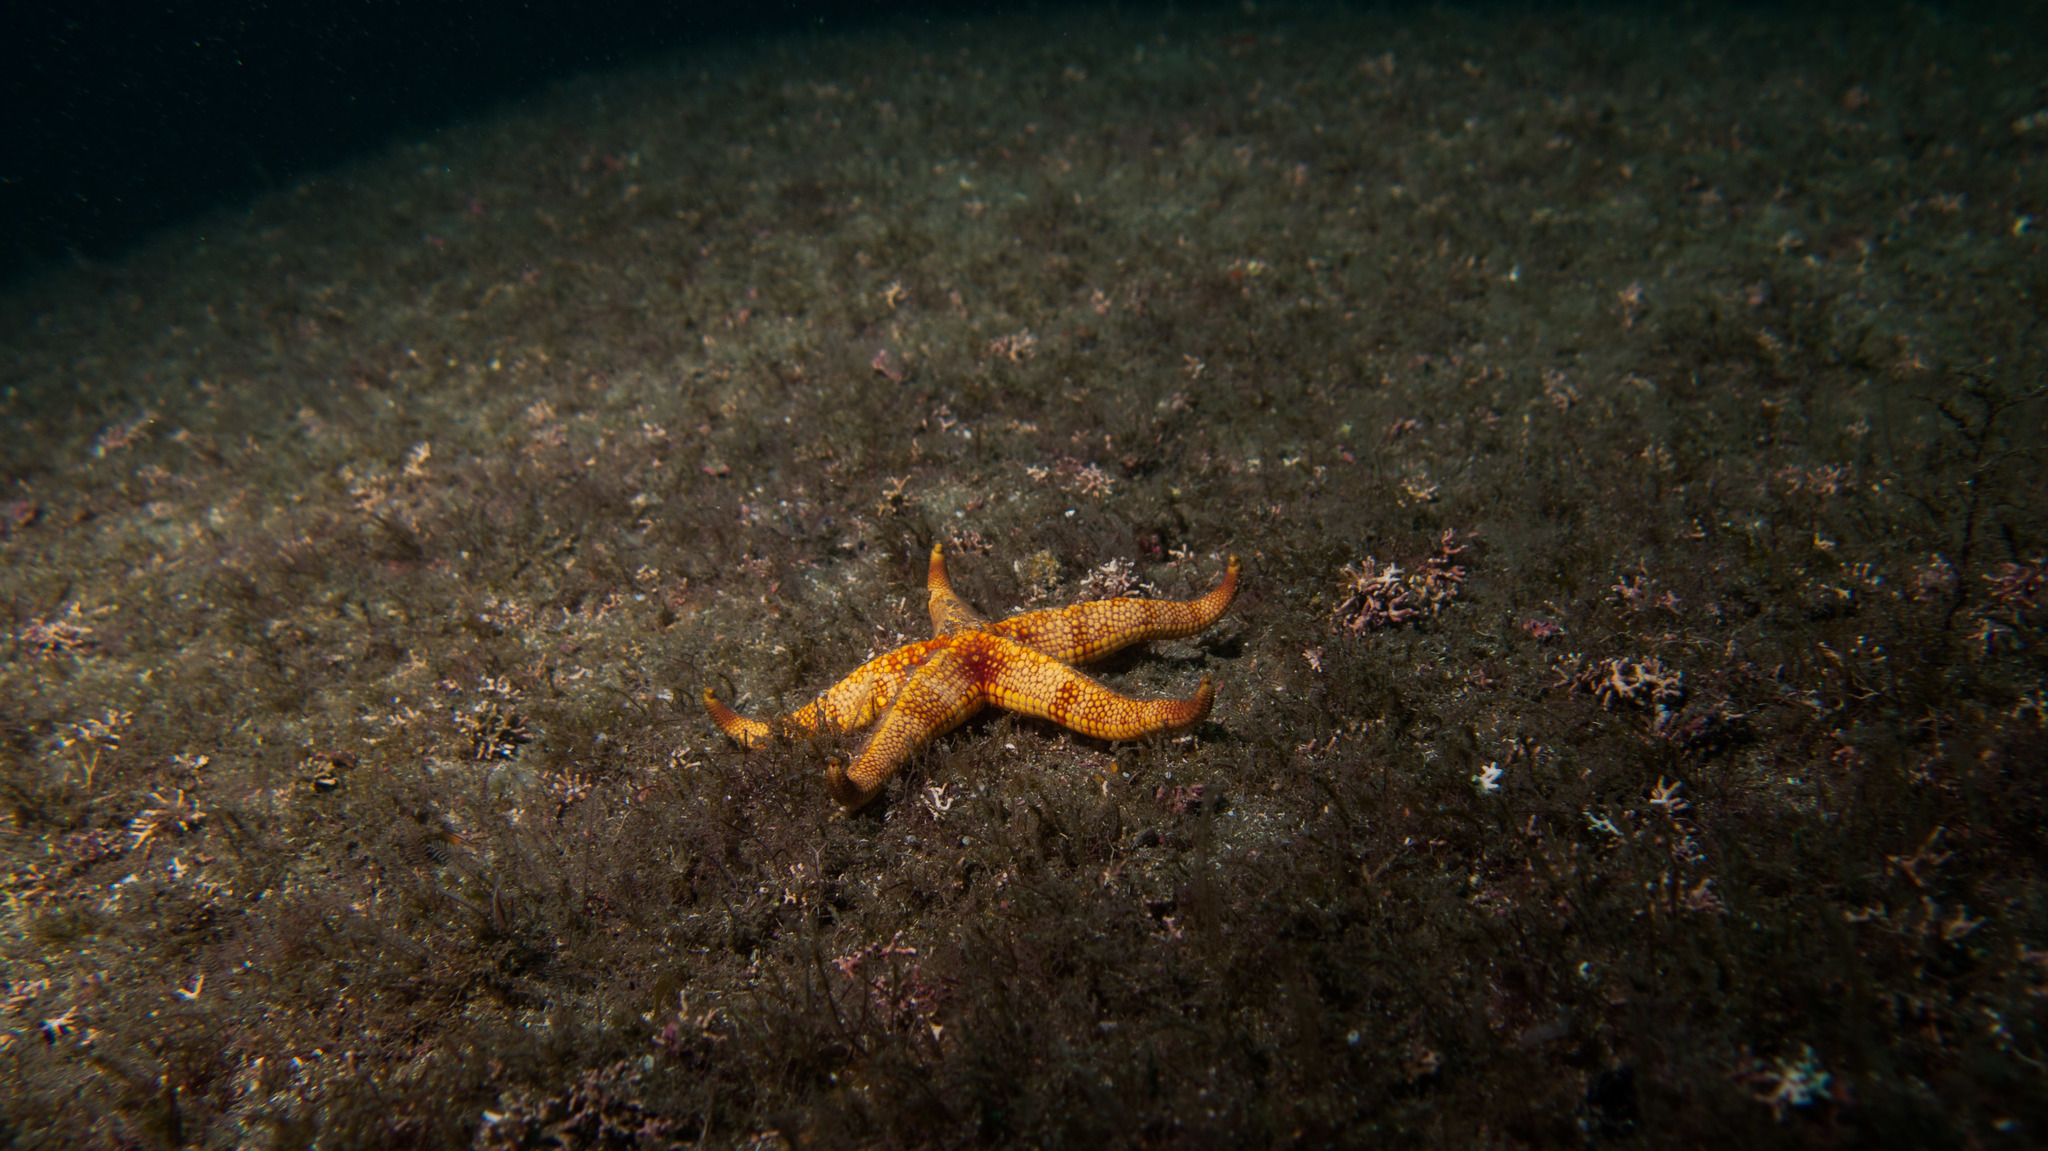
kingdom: Animalia
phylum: Echinodermata
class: Asteroidea
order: Valvatida
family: Ophidiasteridae
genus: Narcissia
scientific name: Narcissia trigonaria
